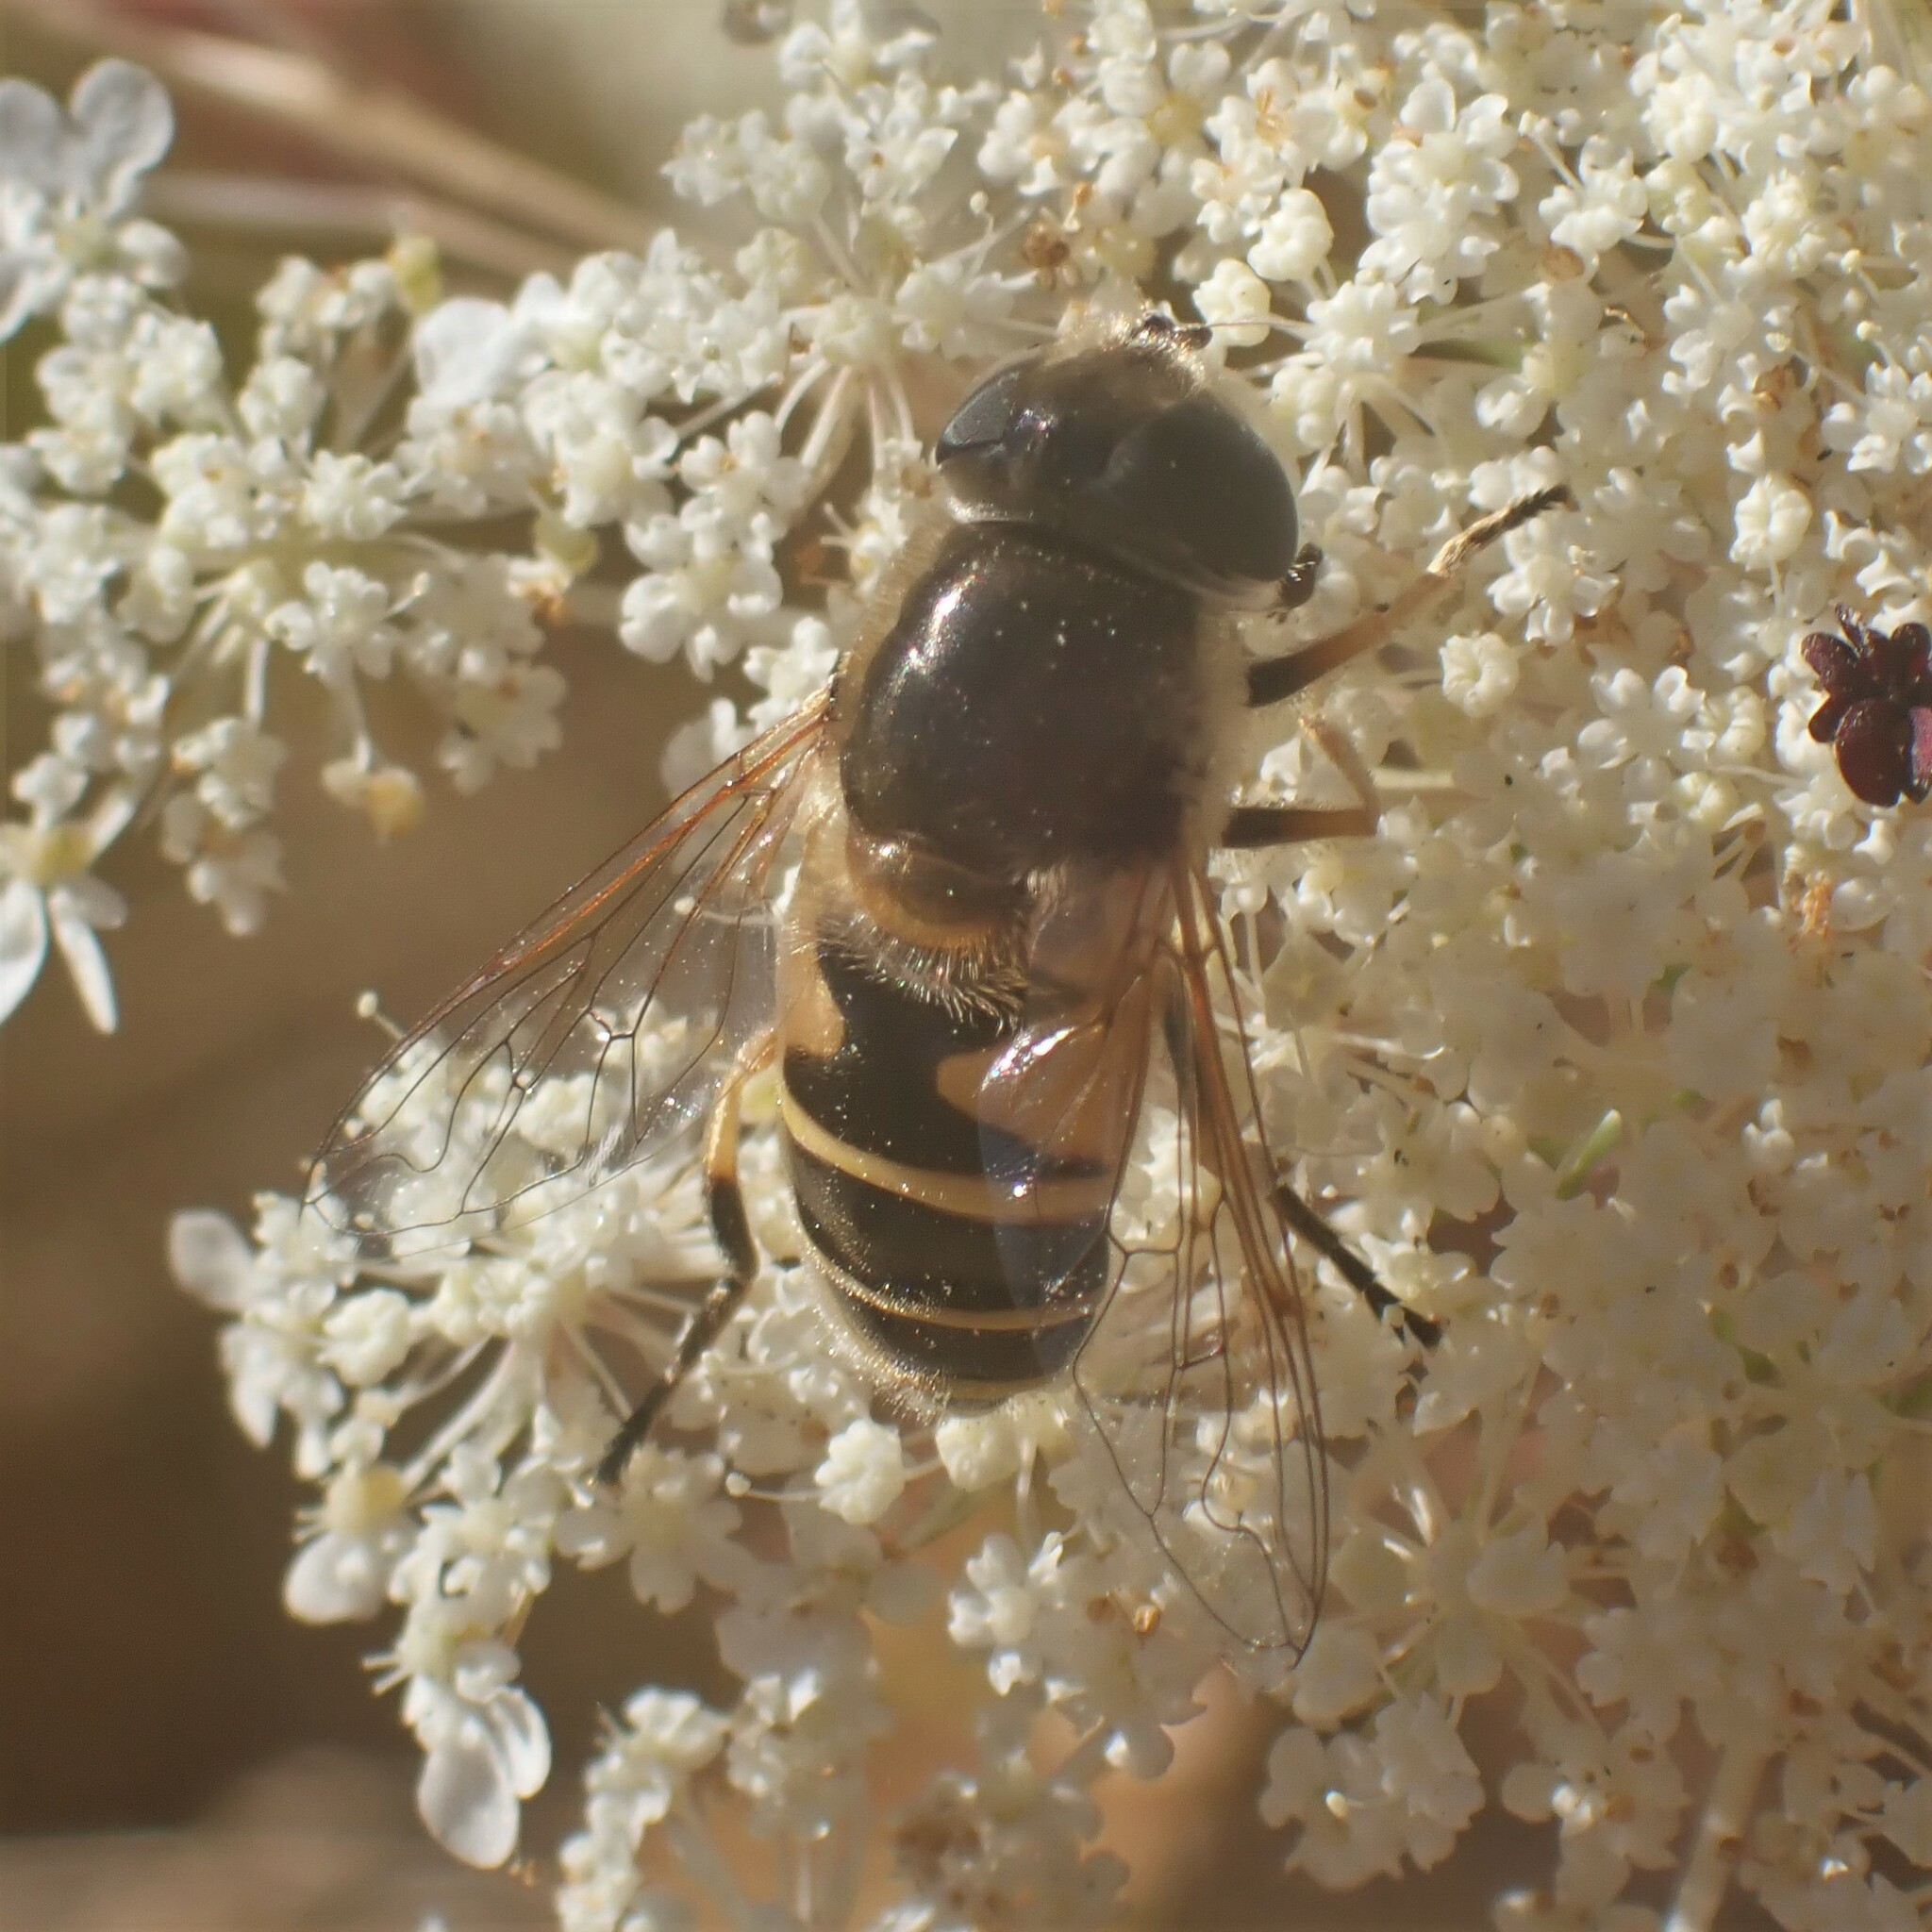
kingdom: Animalia
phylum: Arthropoda
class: Insecta
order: Diptera
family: Syrphidae
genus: Eristalis
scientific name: Eristalis hirta
